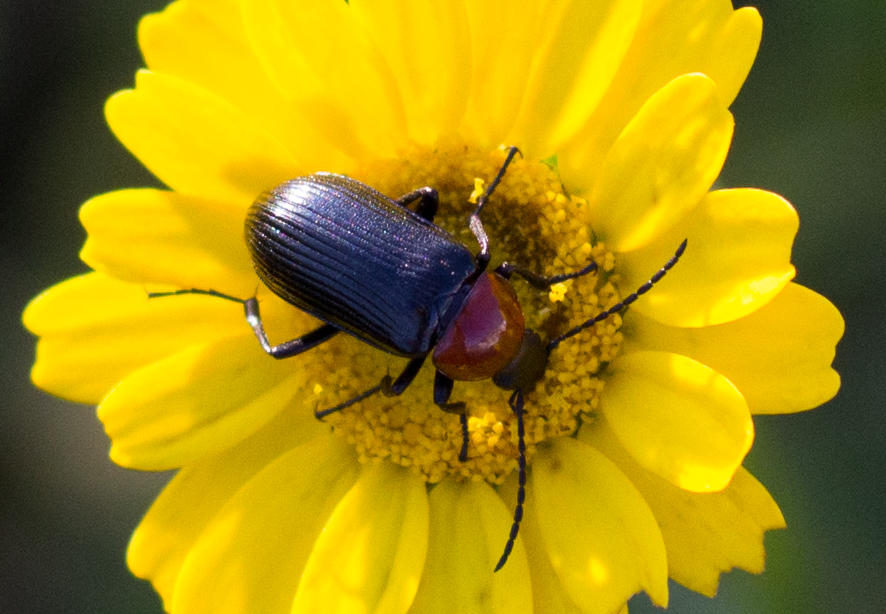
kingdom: Animalia
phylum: Arthropoda
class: Insecta
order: Coleoptera
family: Tenebrionidae
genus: Heliotaurus
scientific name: Heliotaurus ruficollis
